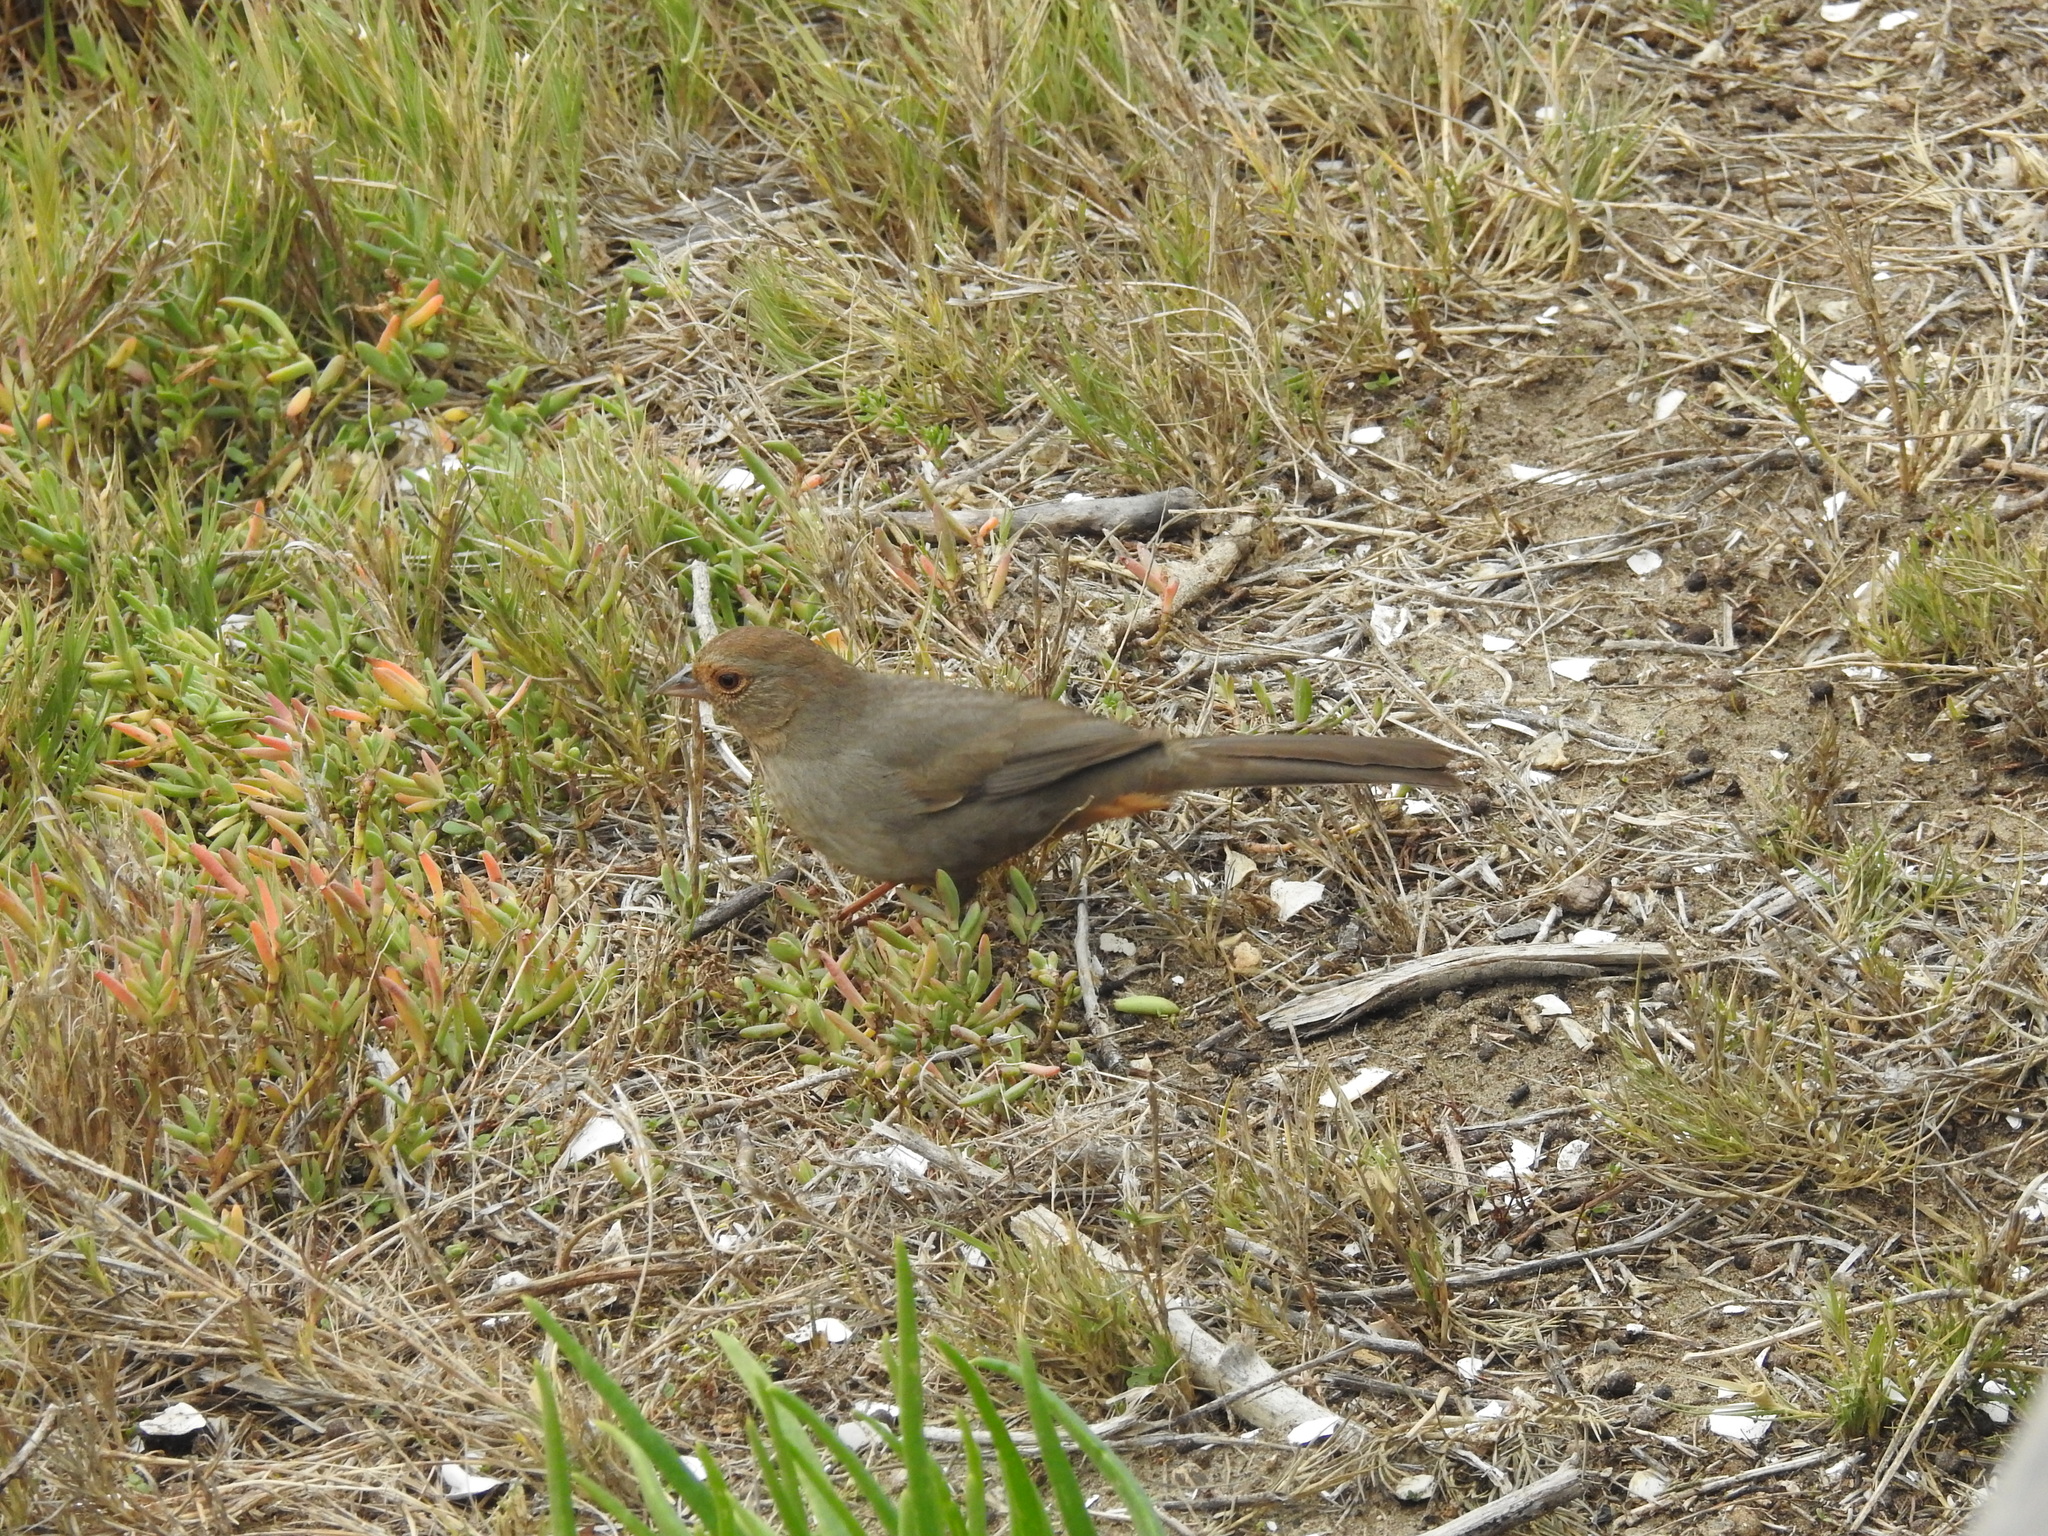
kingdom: Animalia
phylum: Chordata
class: Aves
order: Passeriformes
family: Passerellidae
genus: Melozone
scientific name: Melozone crissalis
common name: California towhee
